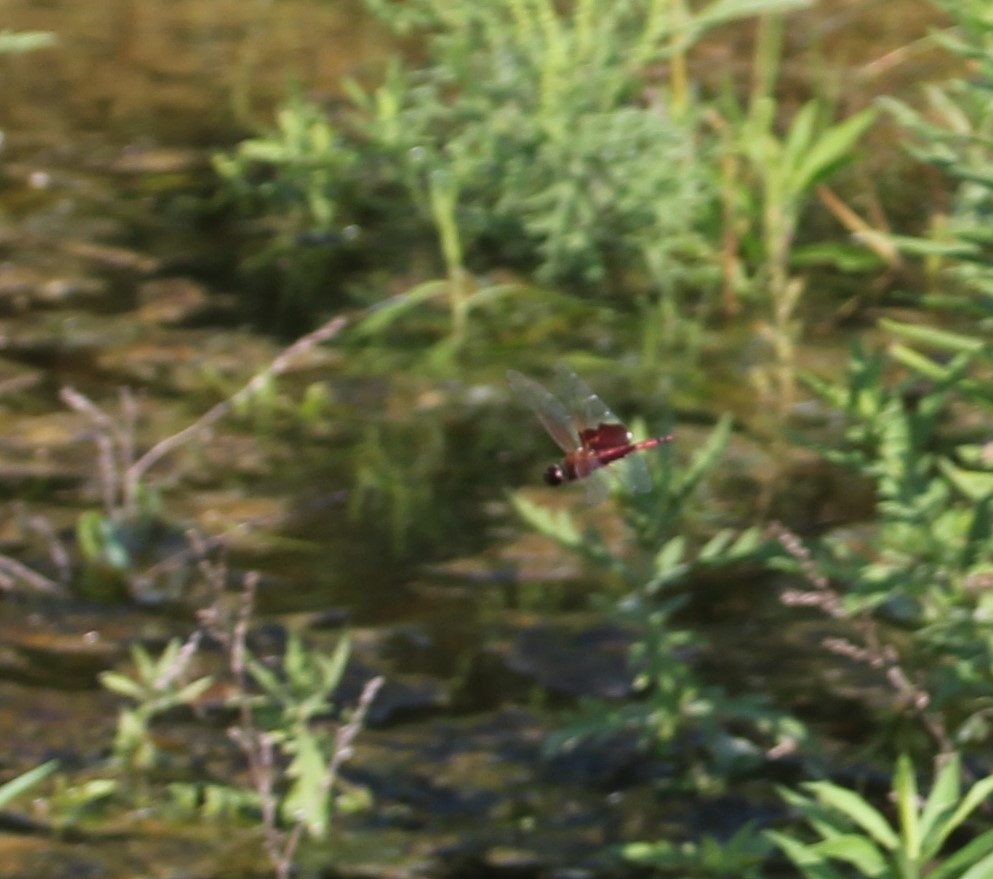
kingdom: Animalia
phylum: Arthropoda
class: Insecta
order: Odonata
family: Libellulidae
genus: Tramea
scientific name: Tramea carolina
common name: Carolina saddlebags
